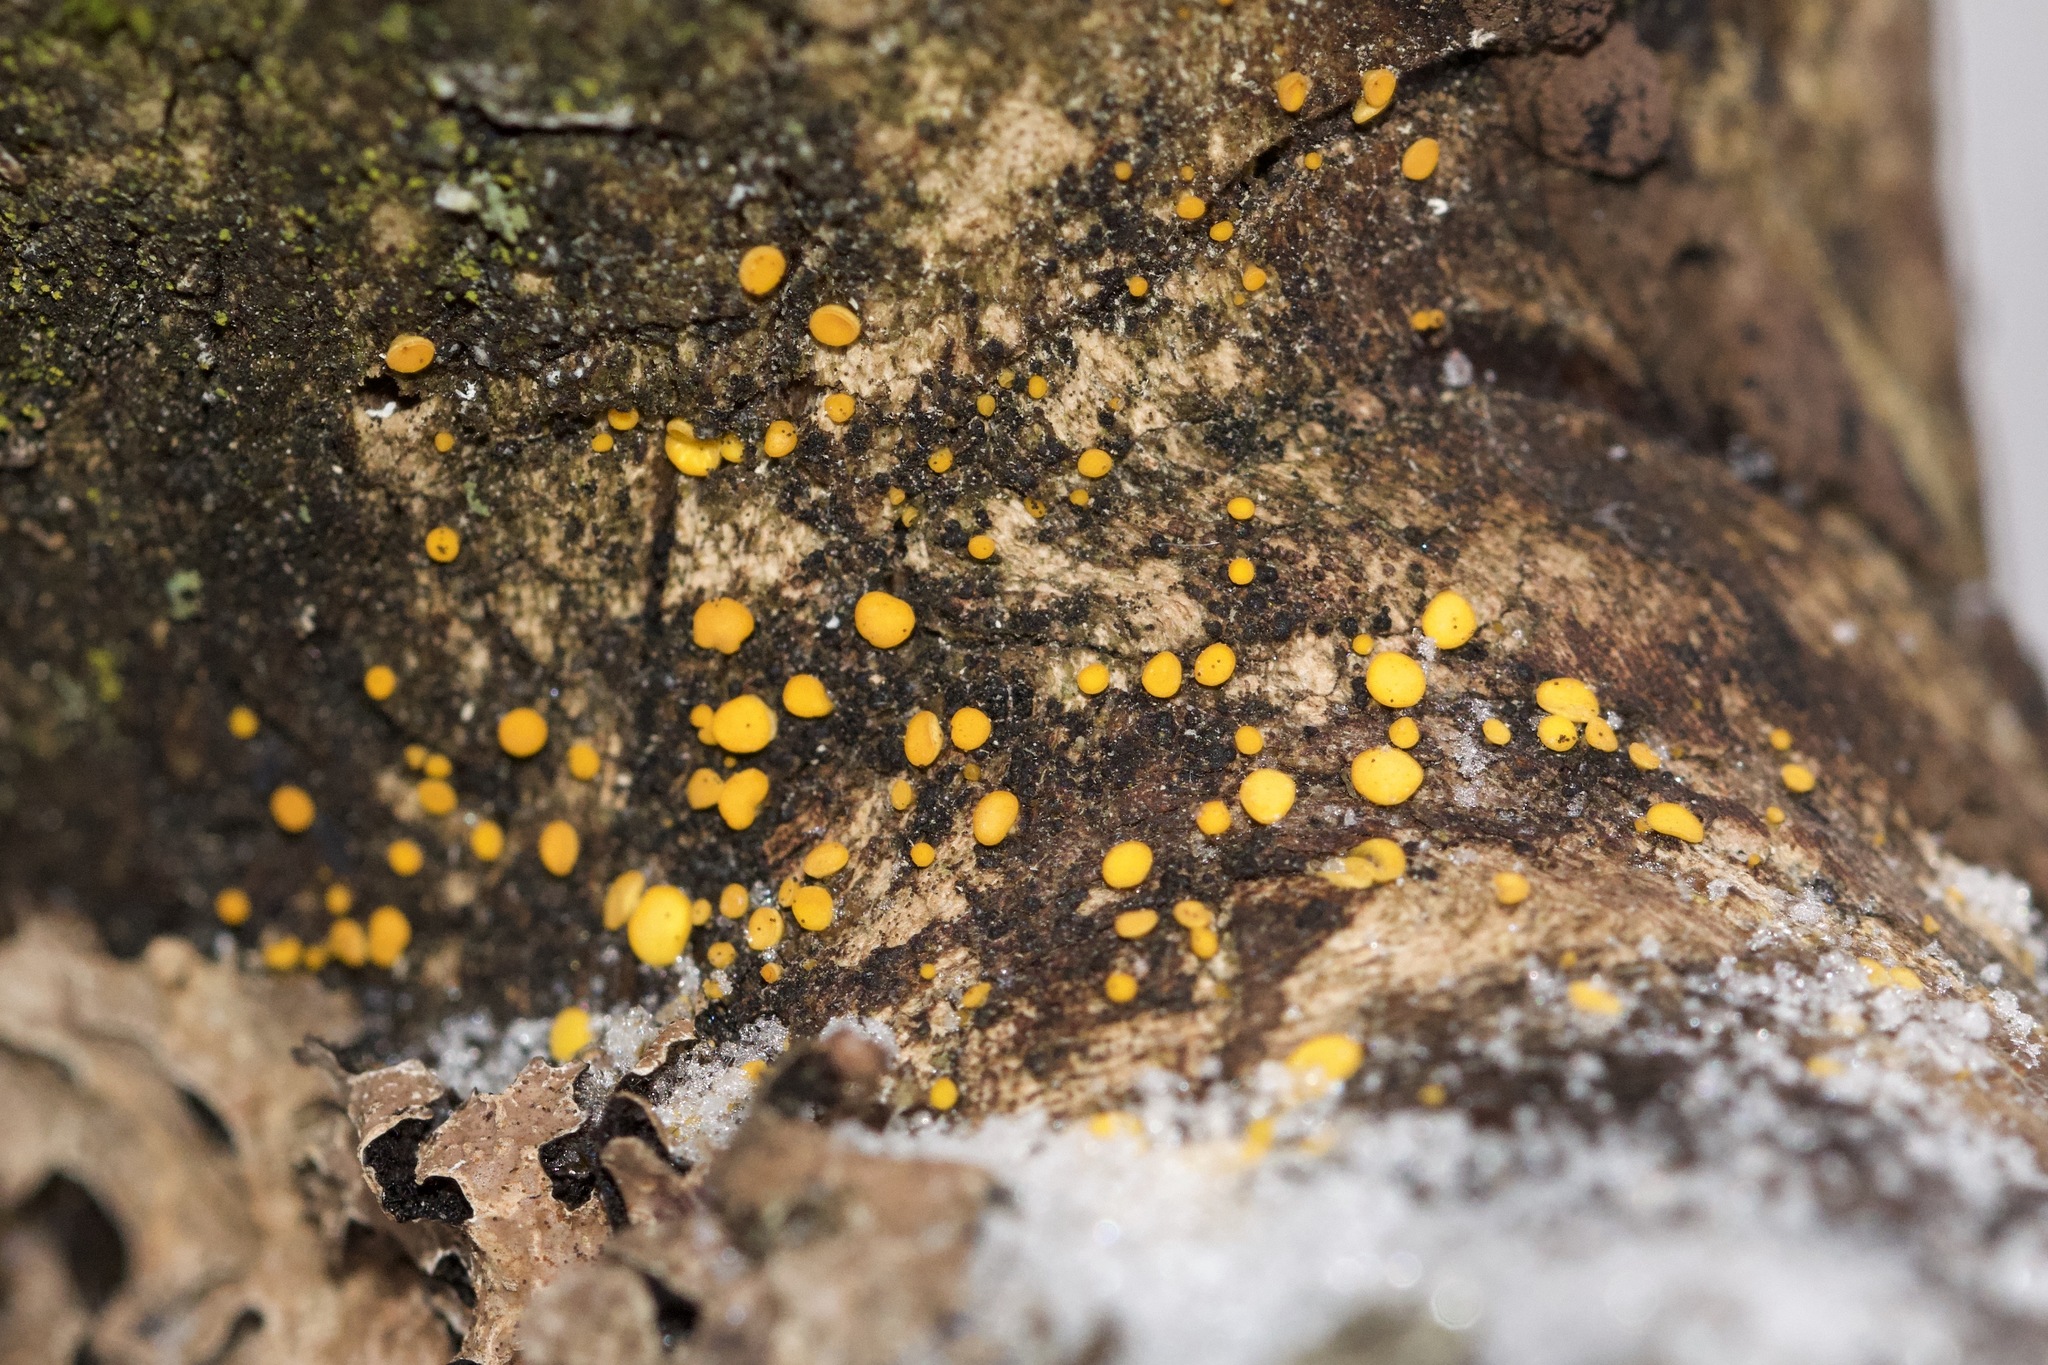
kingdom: Fungi
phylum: Ascomycota
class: Leotiomycetes
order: Helotiales
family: Pezizellaceae
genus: Calycina
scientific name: Calycina citrina
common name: Yellow fairy cups
